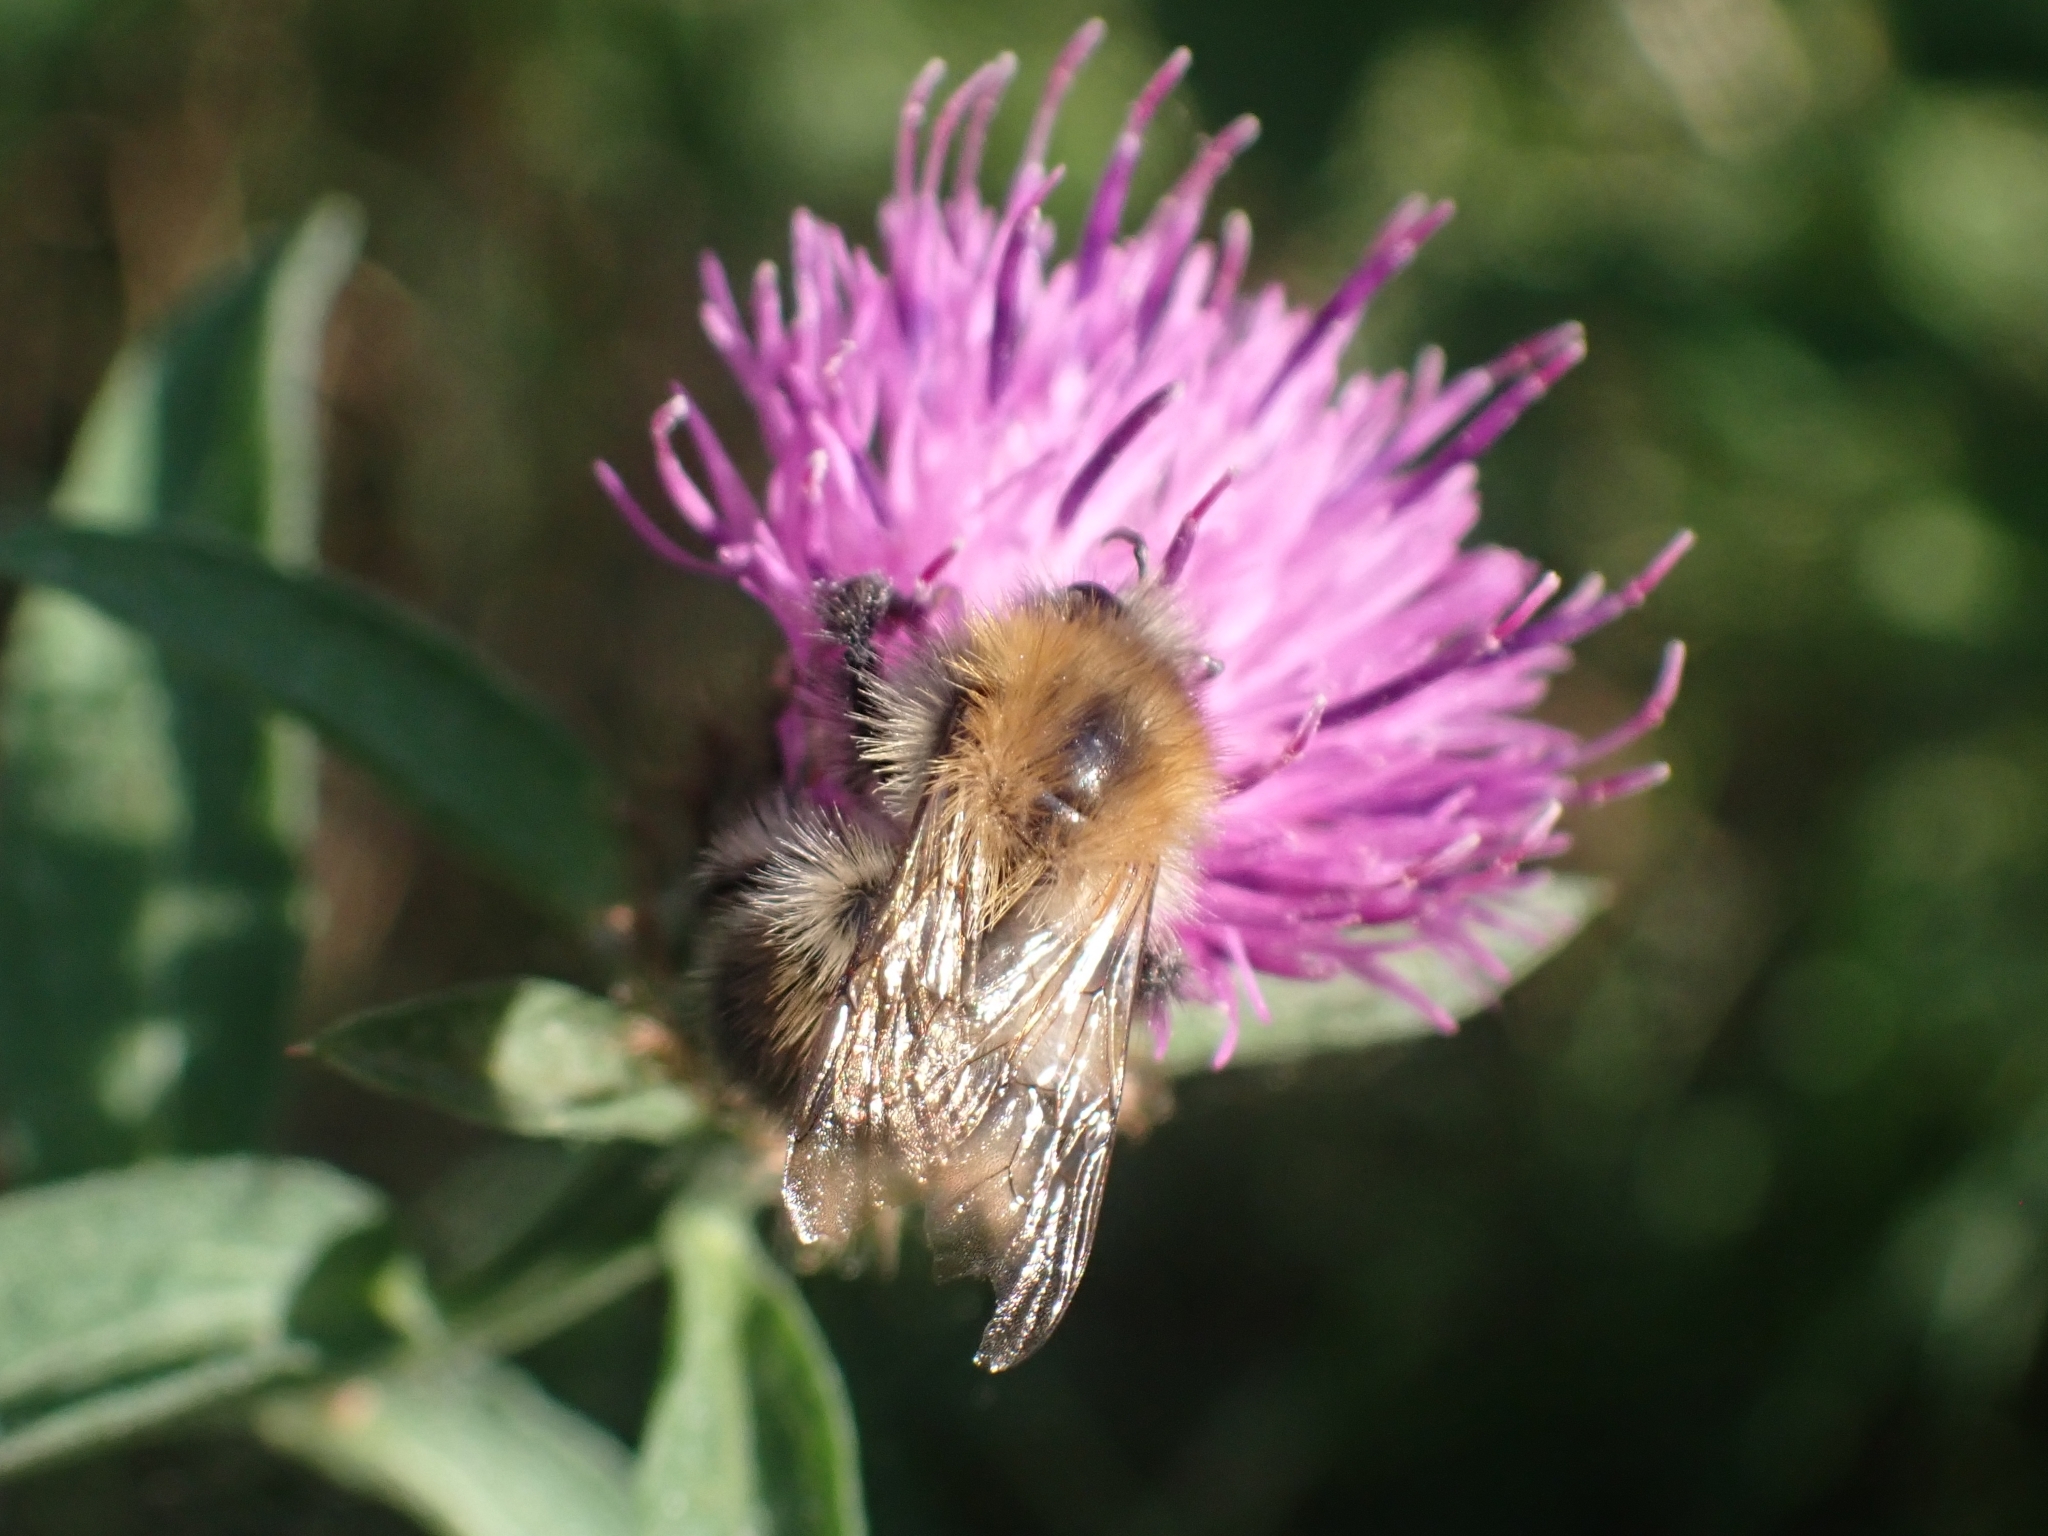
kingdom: Animalia
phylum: Arthropoda
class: Insecta
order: Hymenoptera
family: Apidae
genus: Bombus
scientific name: Bombus pascuorum
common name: Common carder bee
